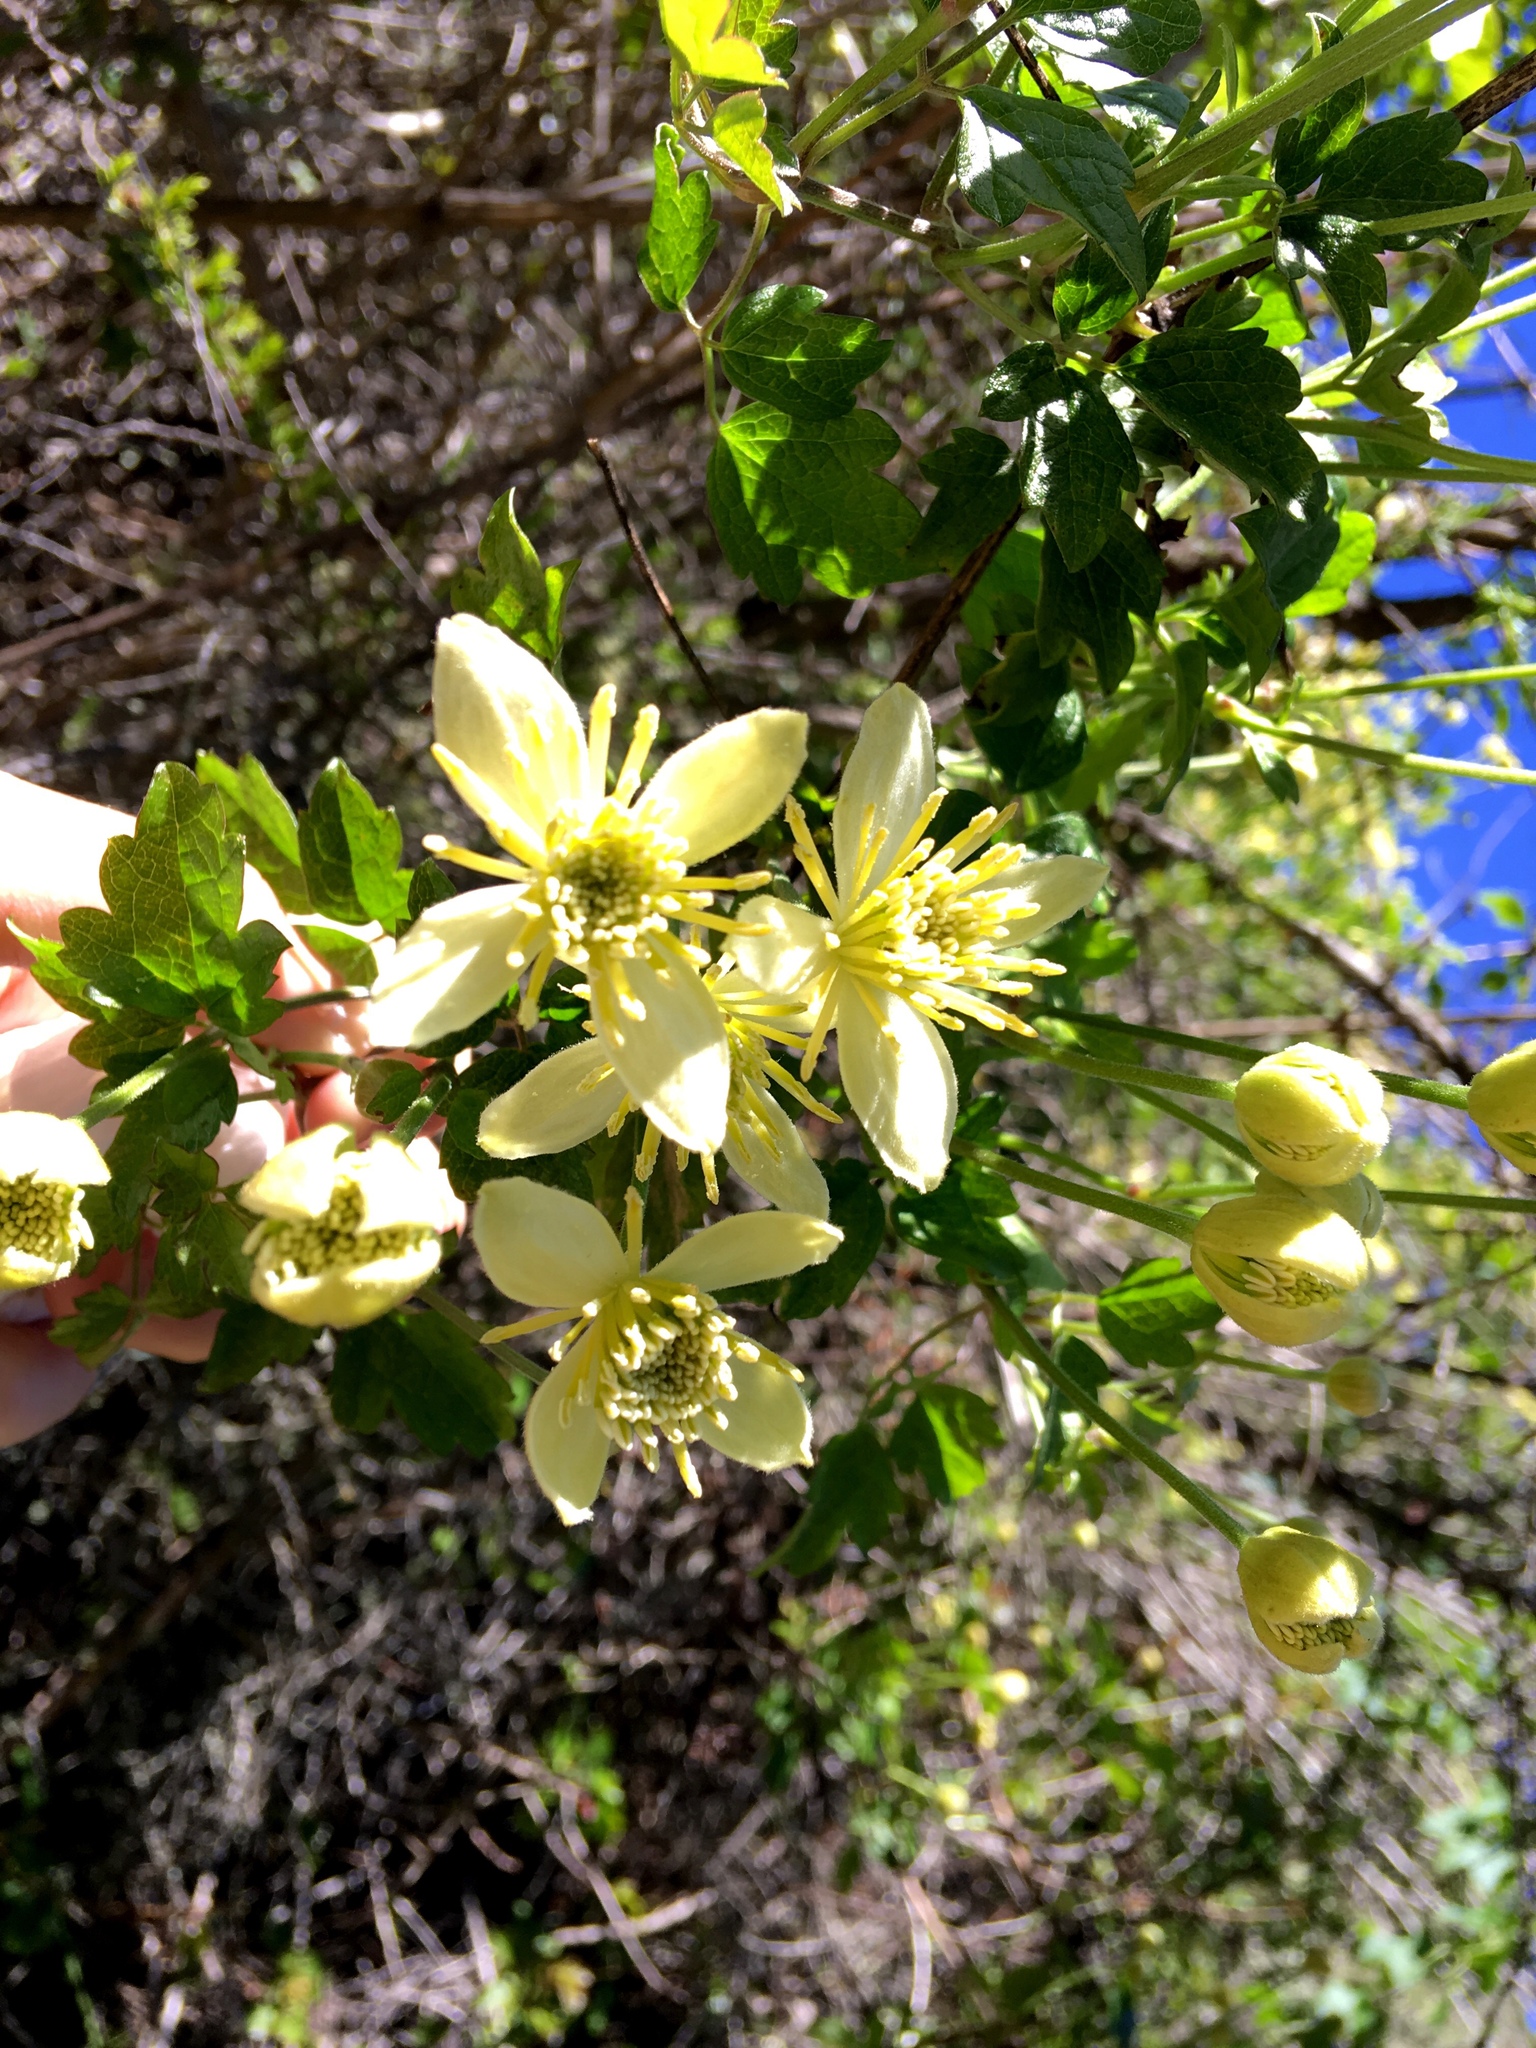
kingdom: Plantae
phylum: Tracheophyta
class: Magnoliopsida
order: Ranunculales
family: Ranunculaceae
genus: Clematis
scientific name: Clematis lasiantha
